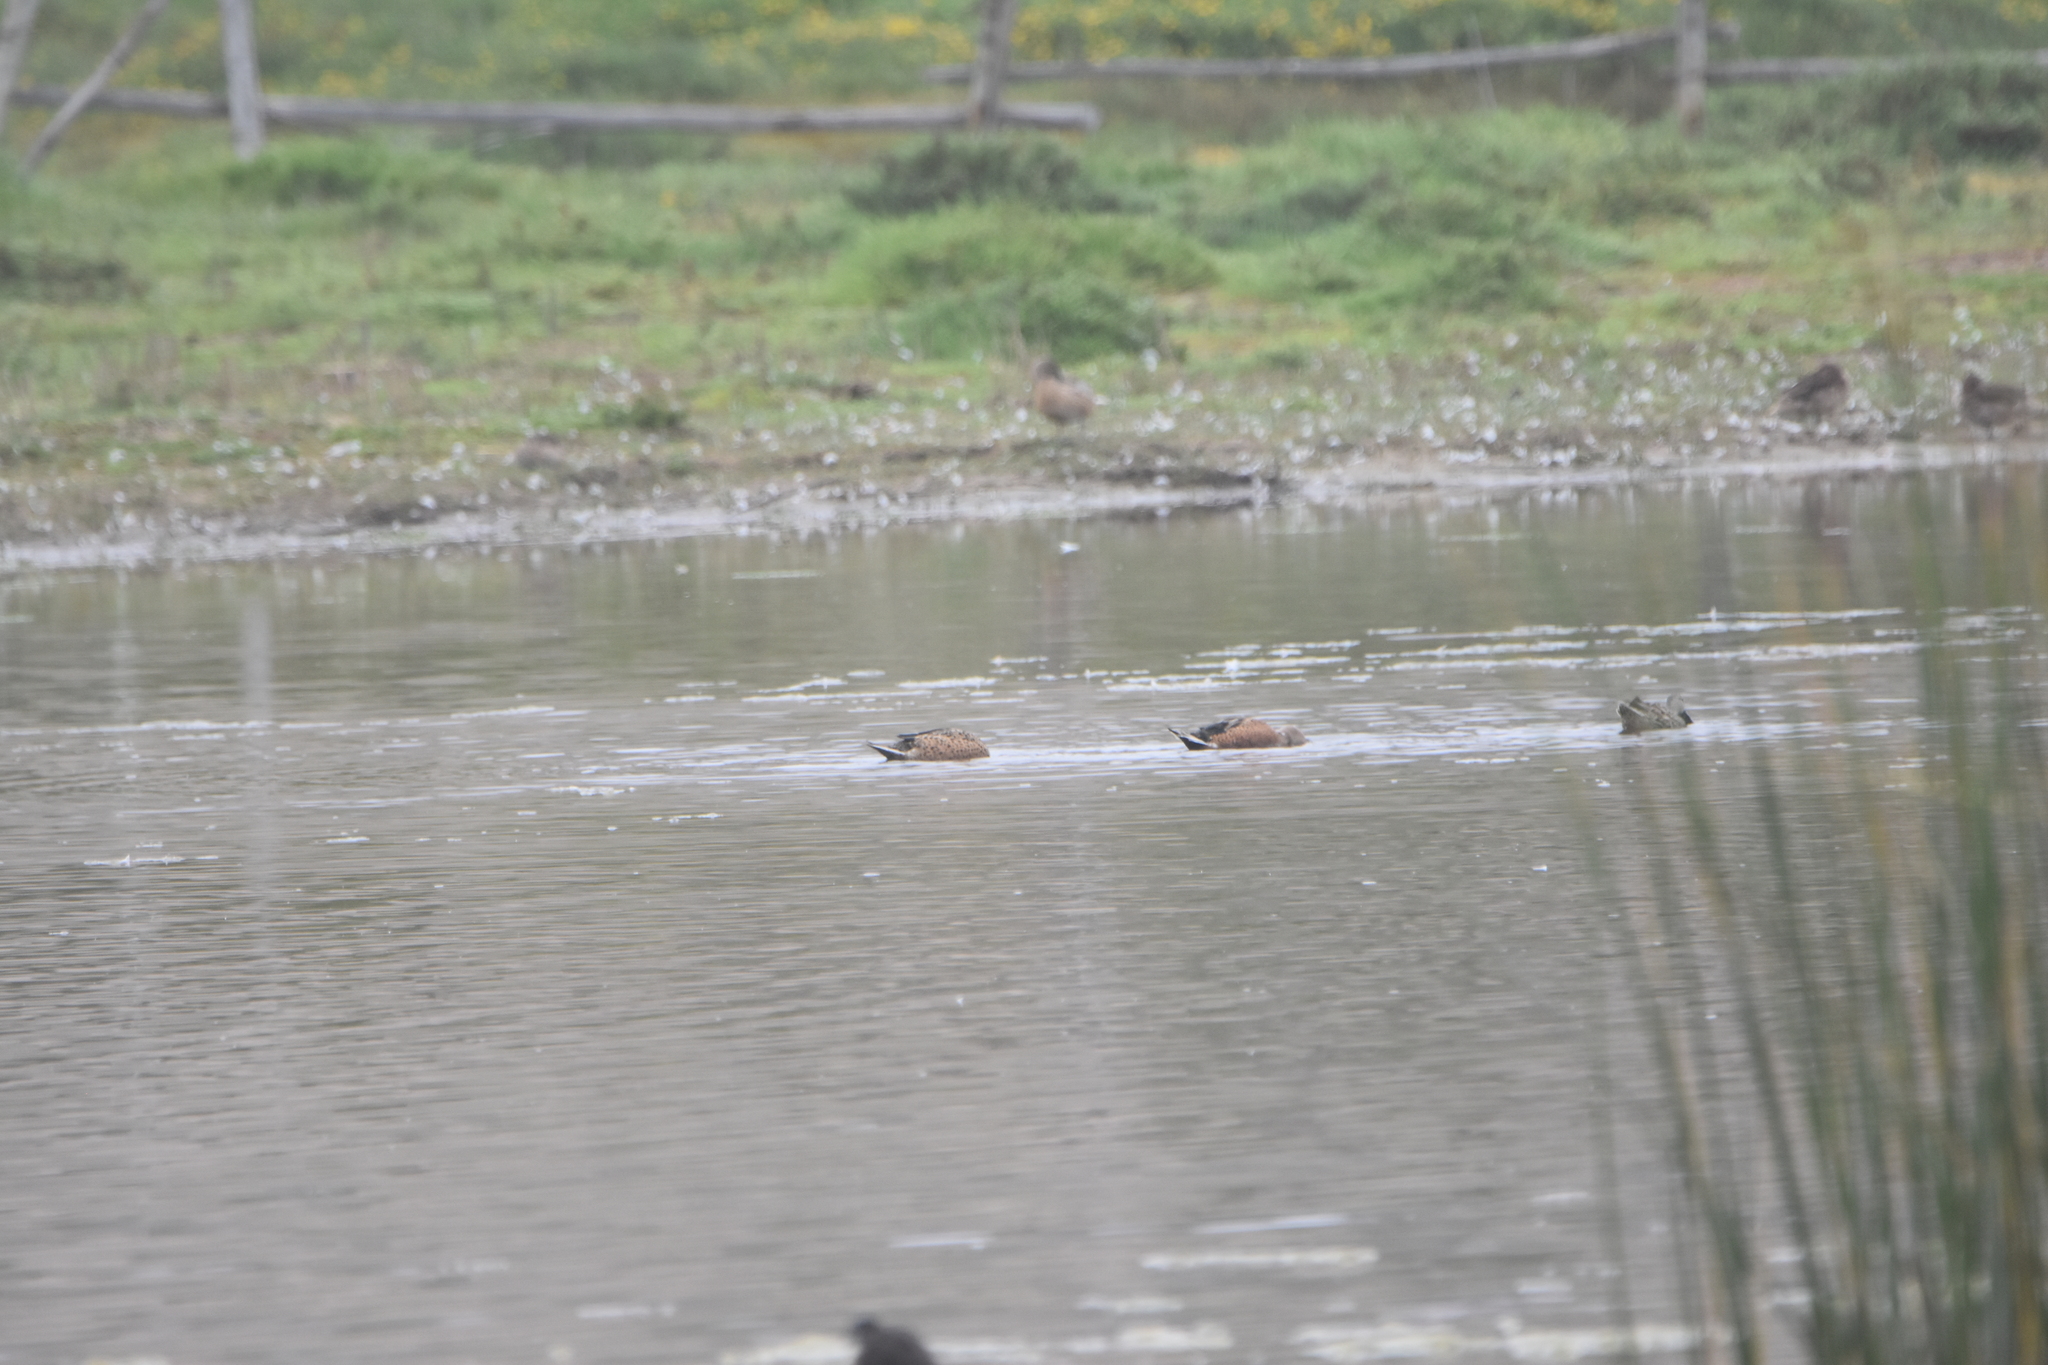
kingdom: Animalia
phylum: Chordata
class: Aves
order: Anseriformes
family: Anatidae
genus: Spatula
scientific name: Spatula platalea
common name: Red shoveler
